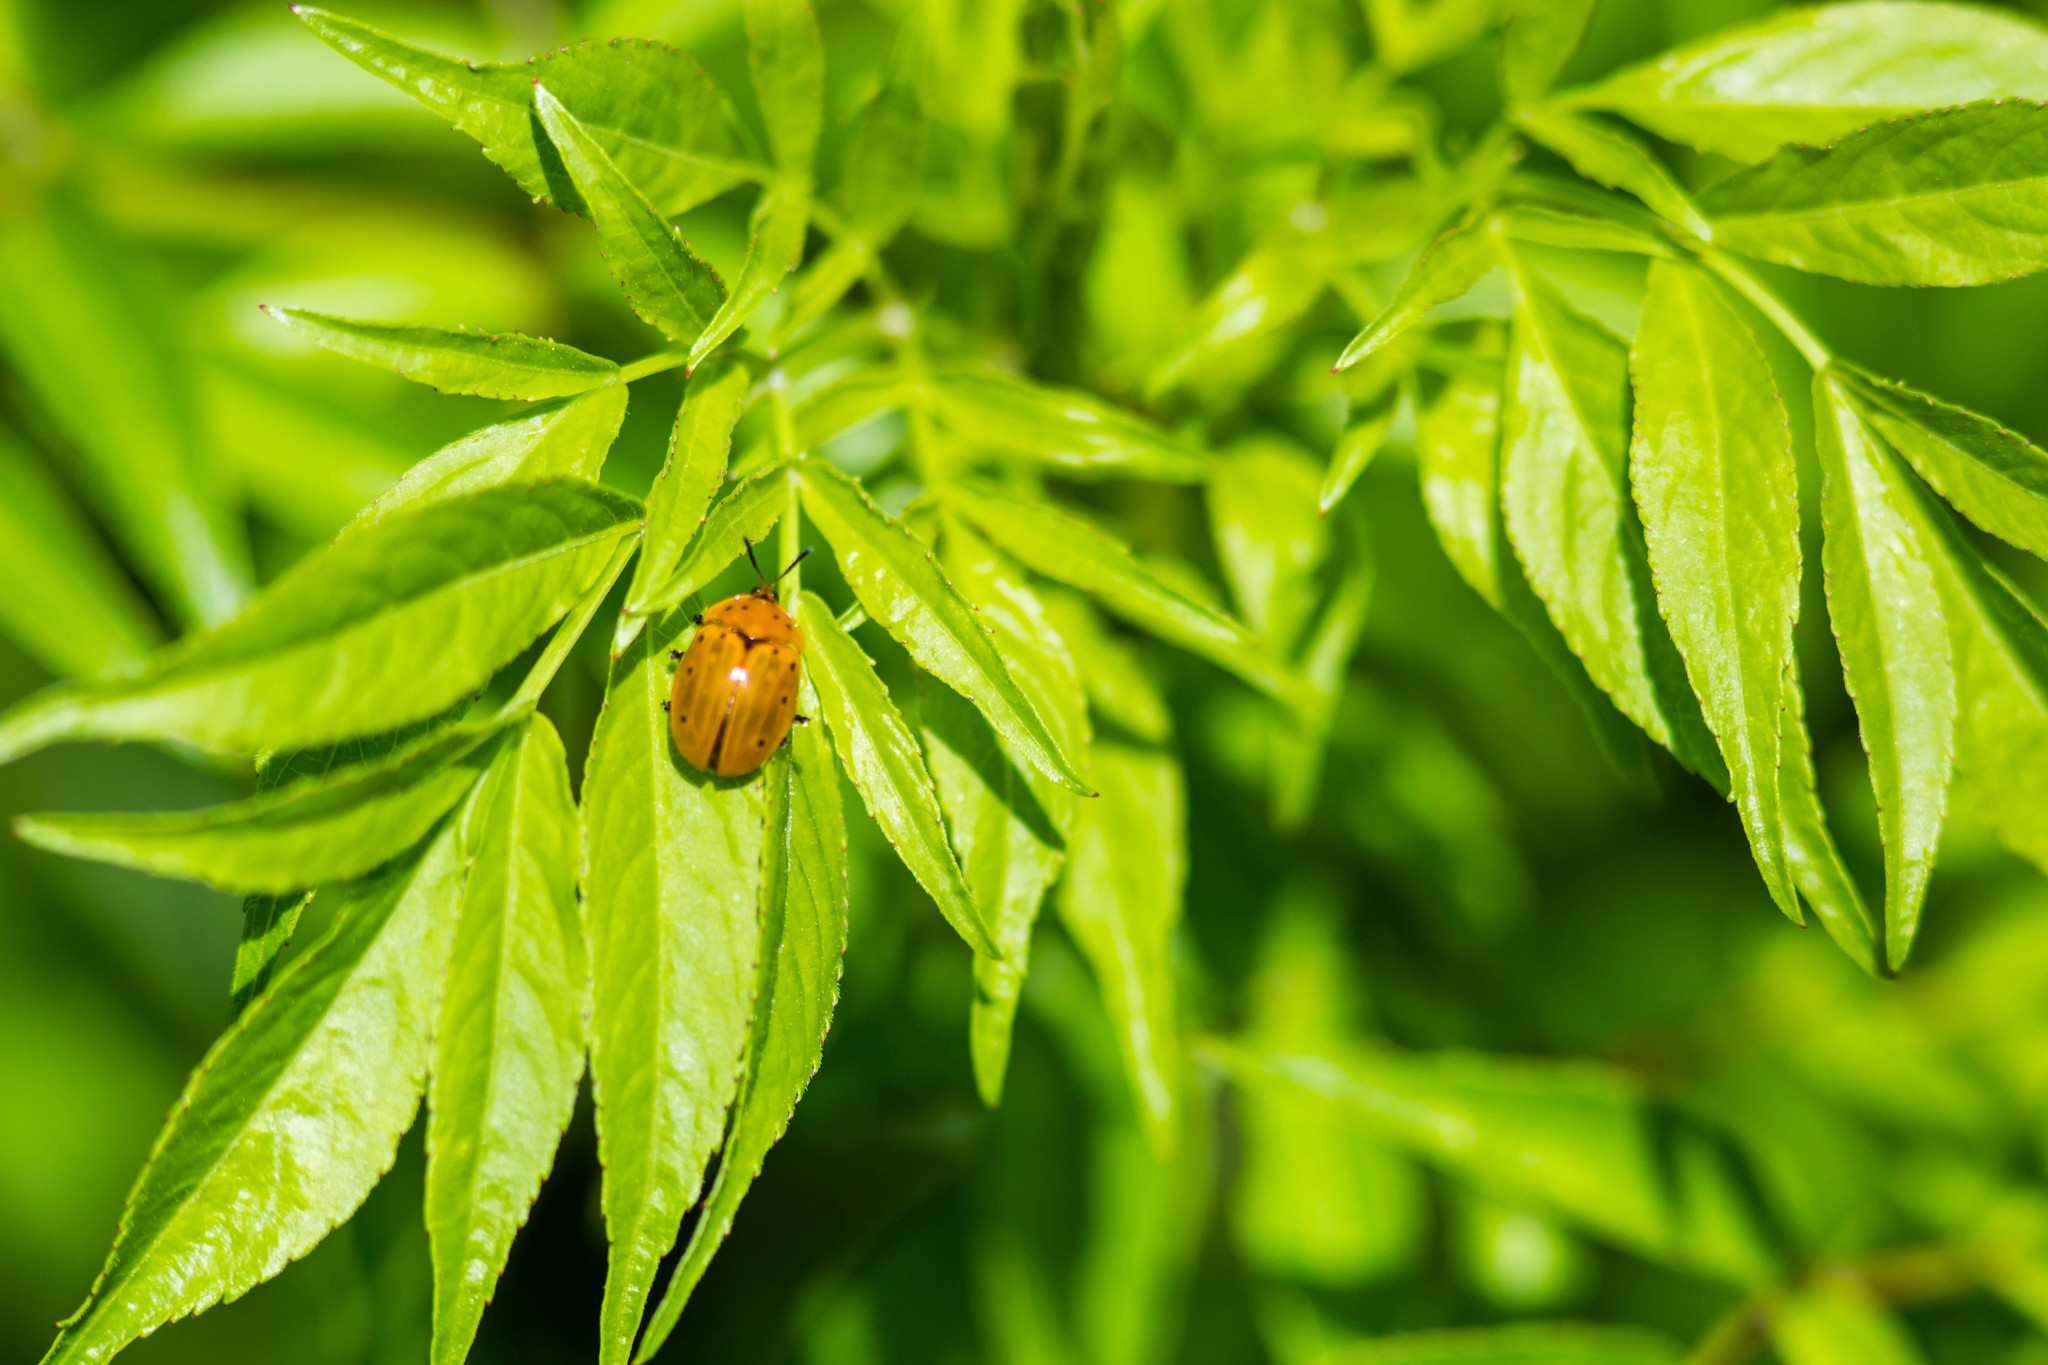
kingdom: Animalia
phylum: Arthropoda
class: Insecta
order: Coleoptera
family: Chrysomelidae
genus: Chelymorpha
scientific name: Chelymorpha cassidea
